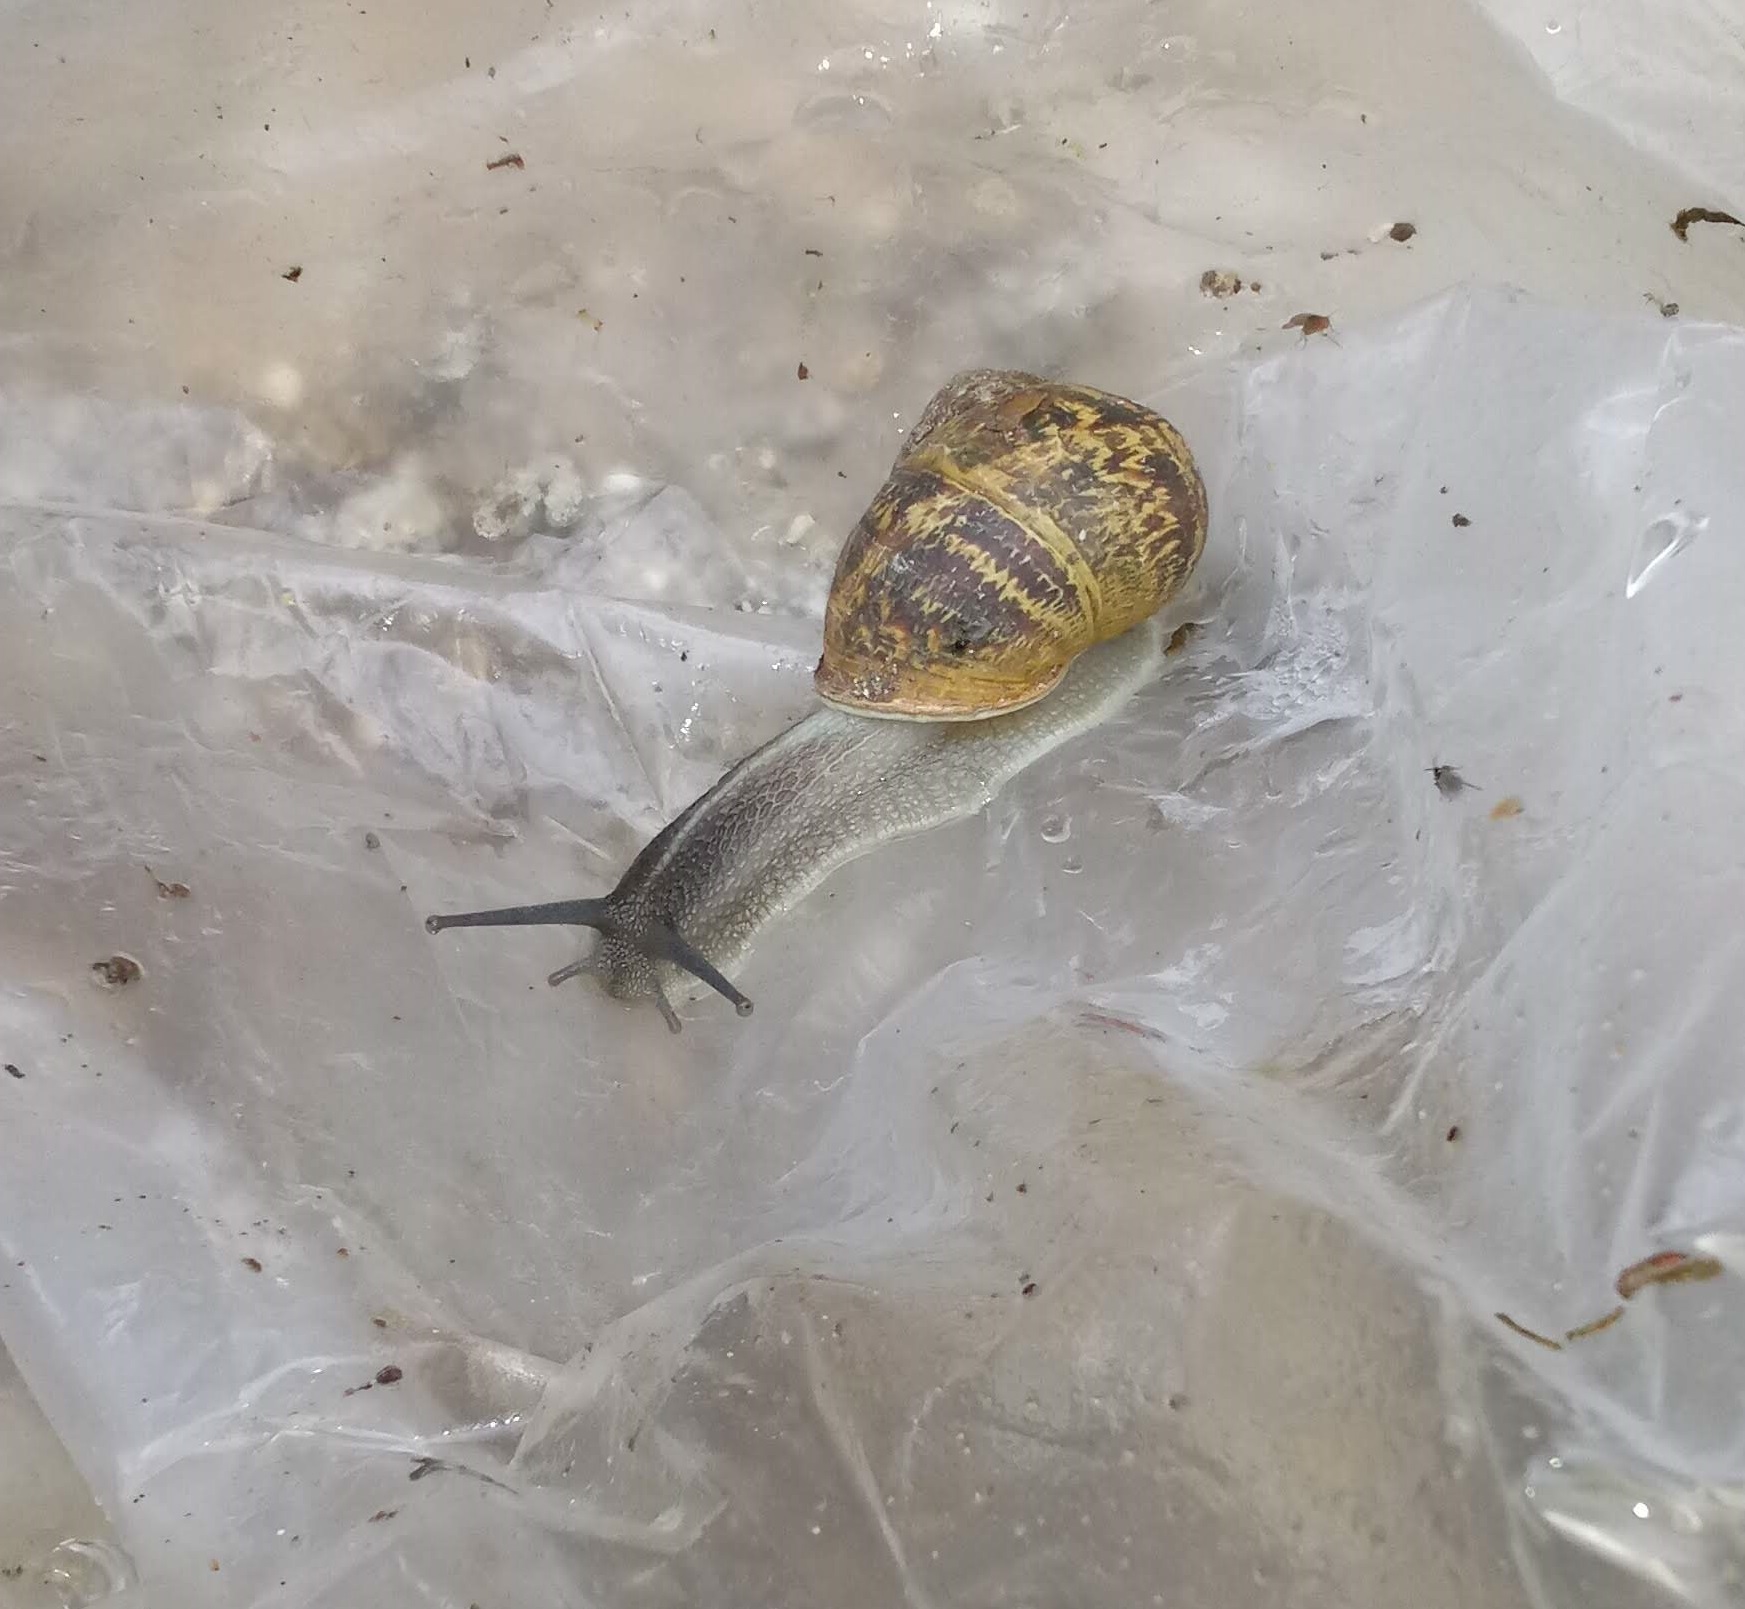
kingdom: Animalia
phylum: Mollusca
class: Gastropoda
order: Stylommatophora
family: Helicidae
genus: Cornu
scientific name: Cornu aspersum
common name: Brown garden snail
